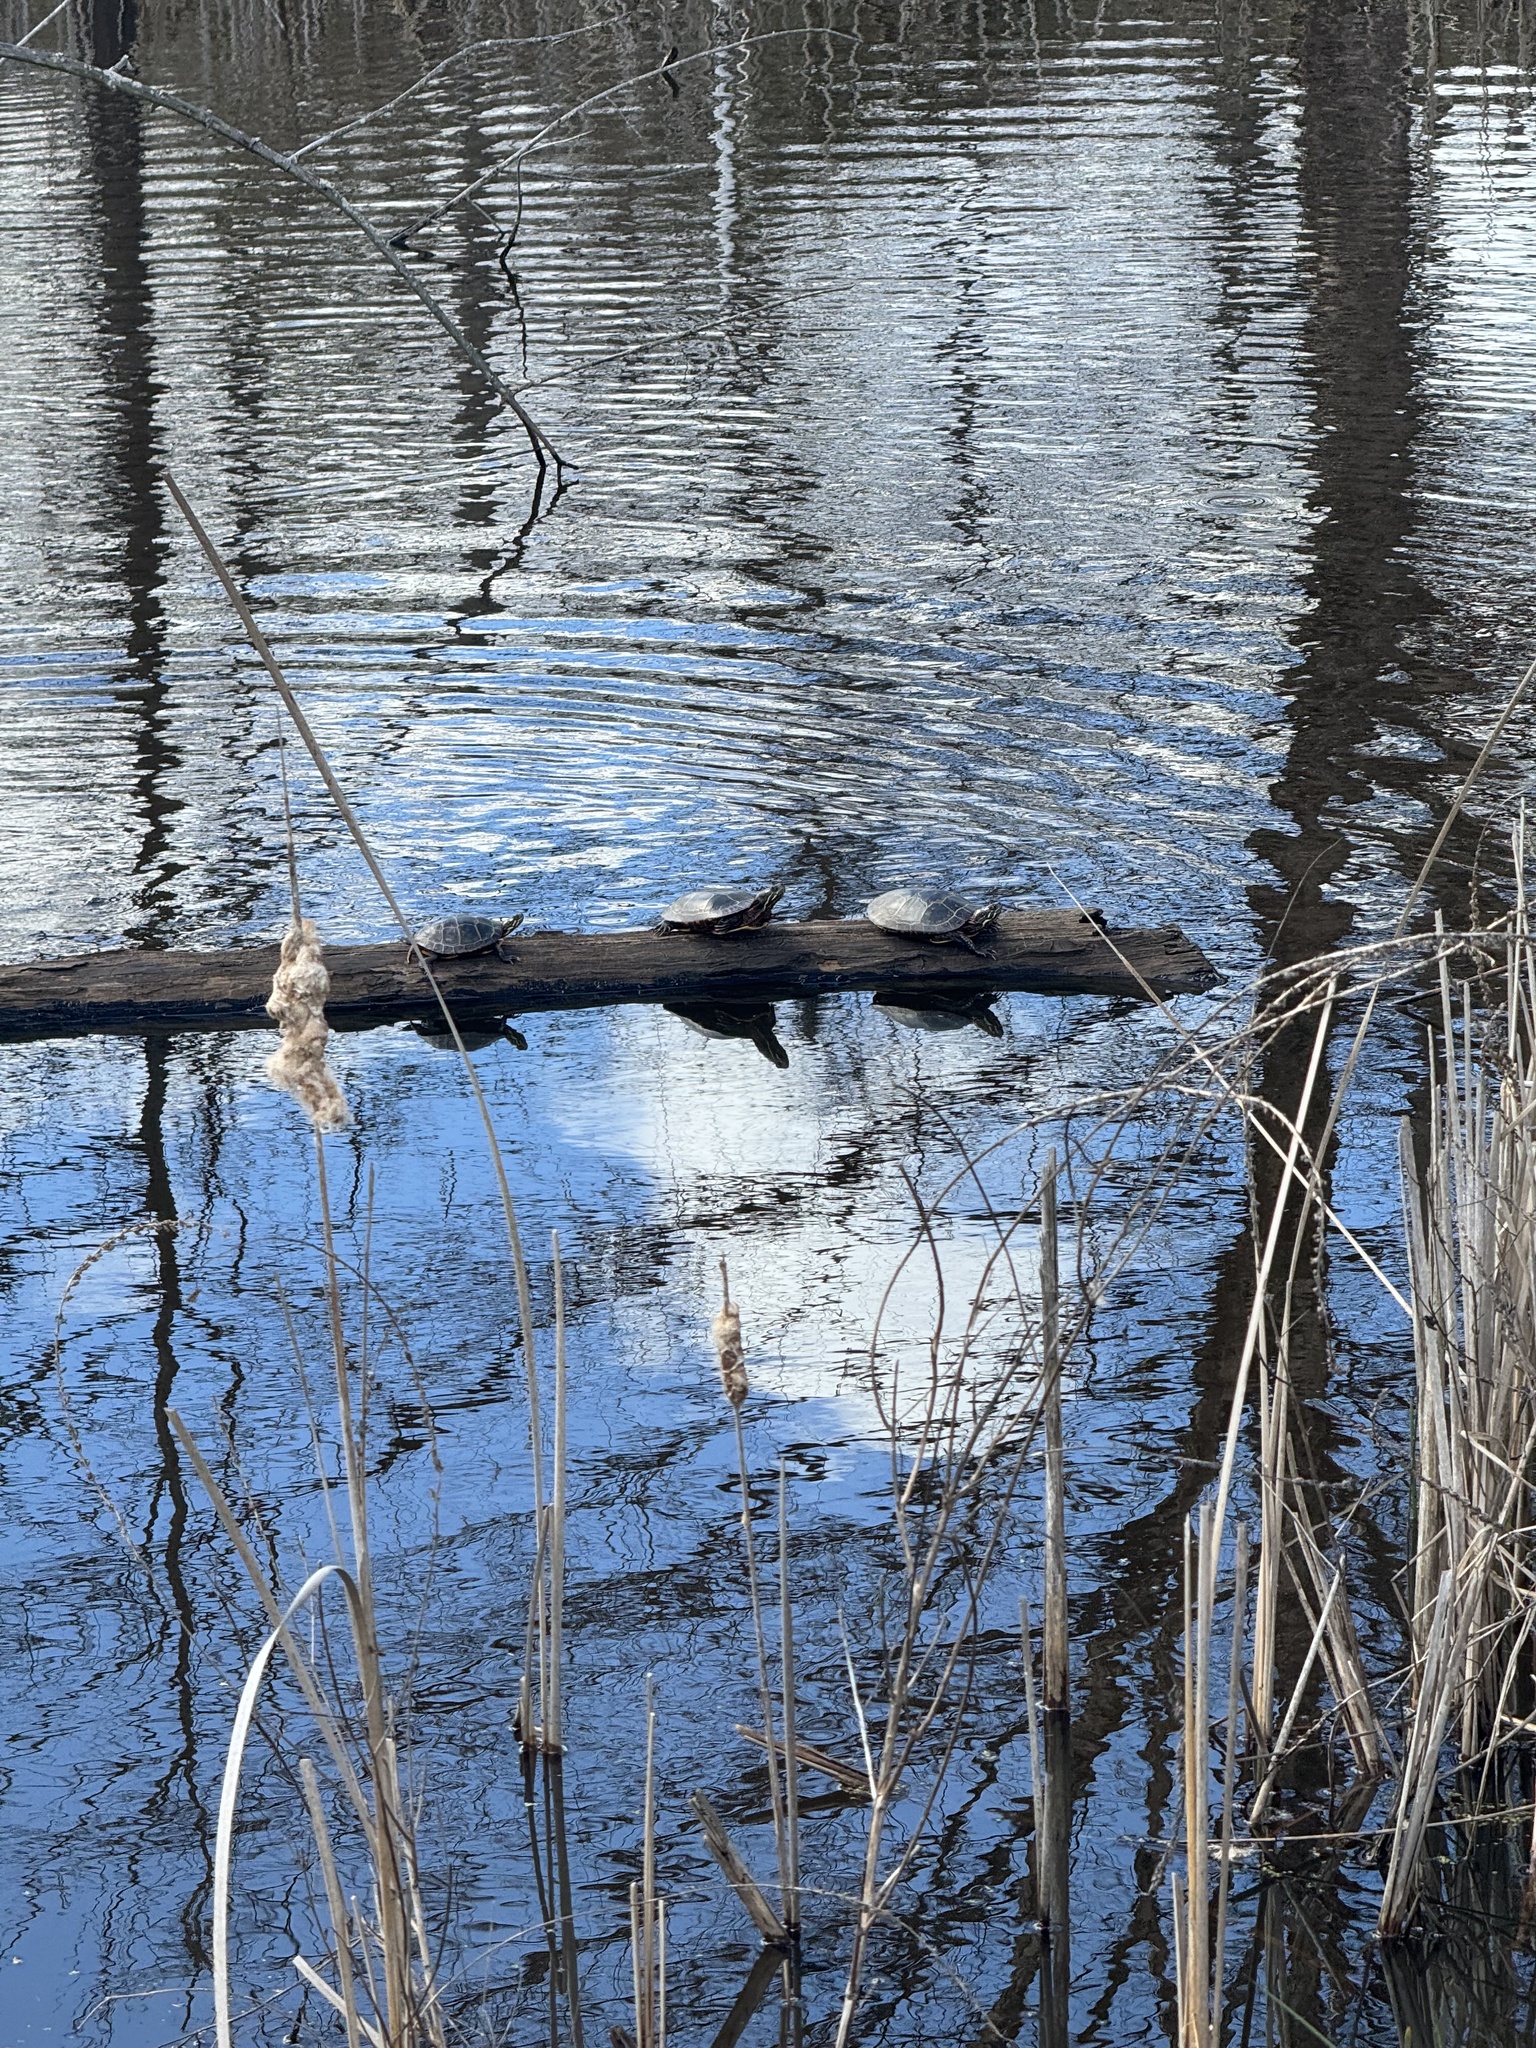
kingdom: Animalia
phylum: Chordata
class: Testudines
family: Emydidae
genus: Chrysemys
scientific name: Chrysemys picta
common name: Painted turtle
